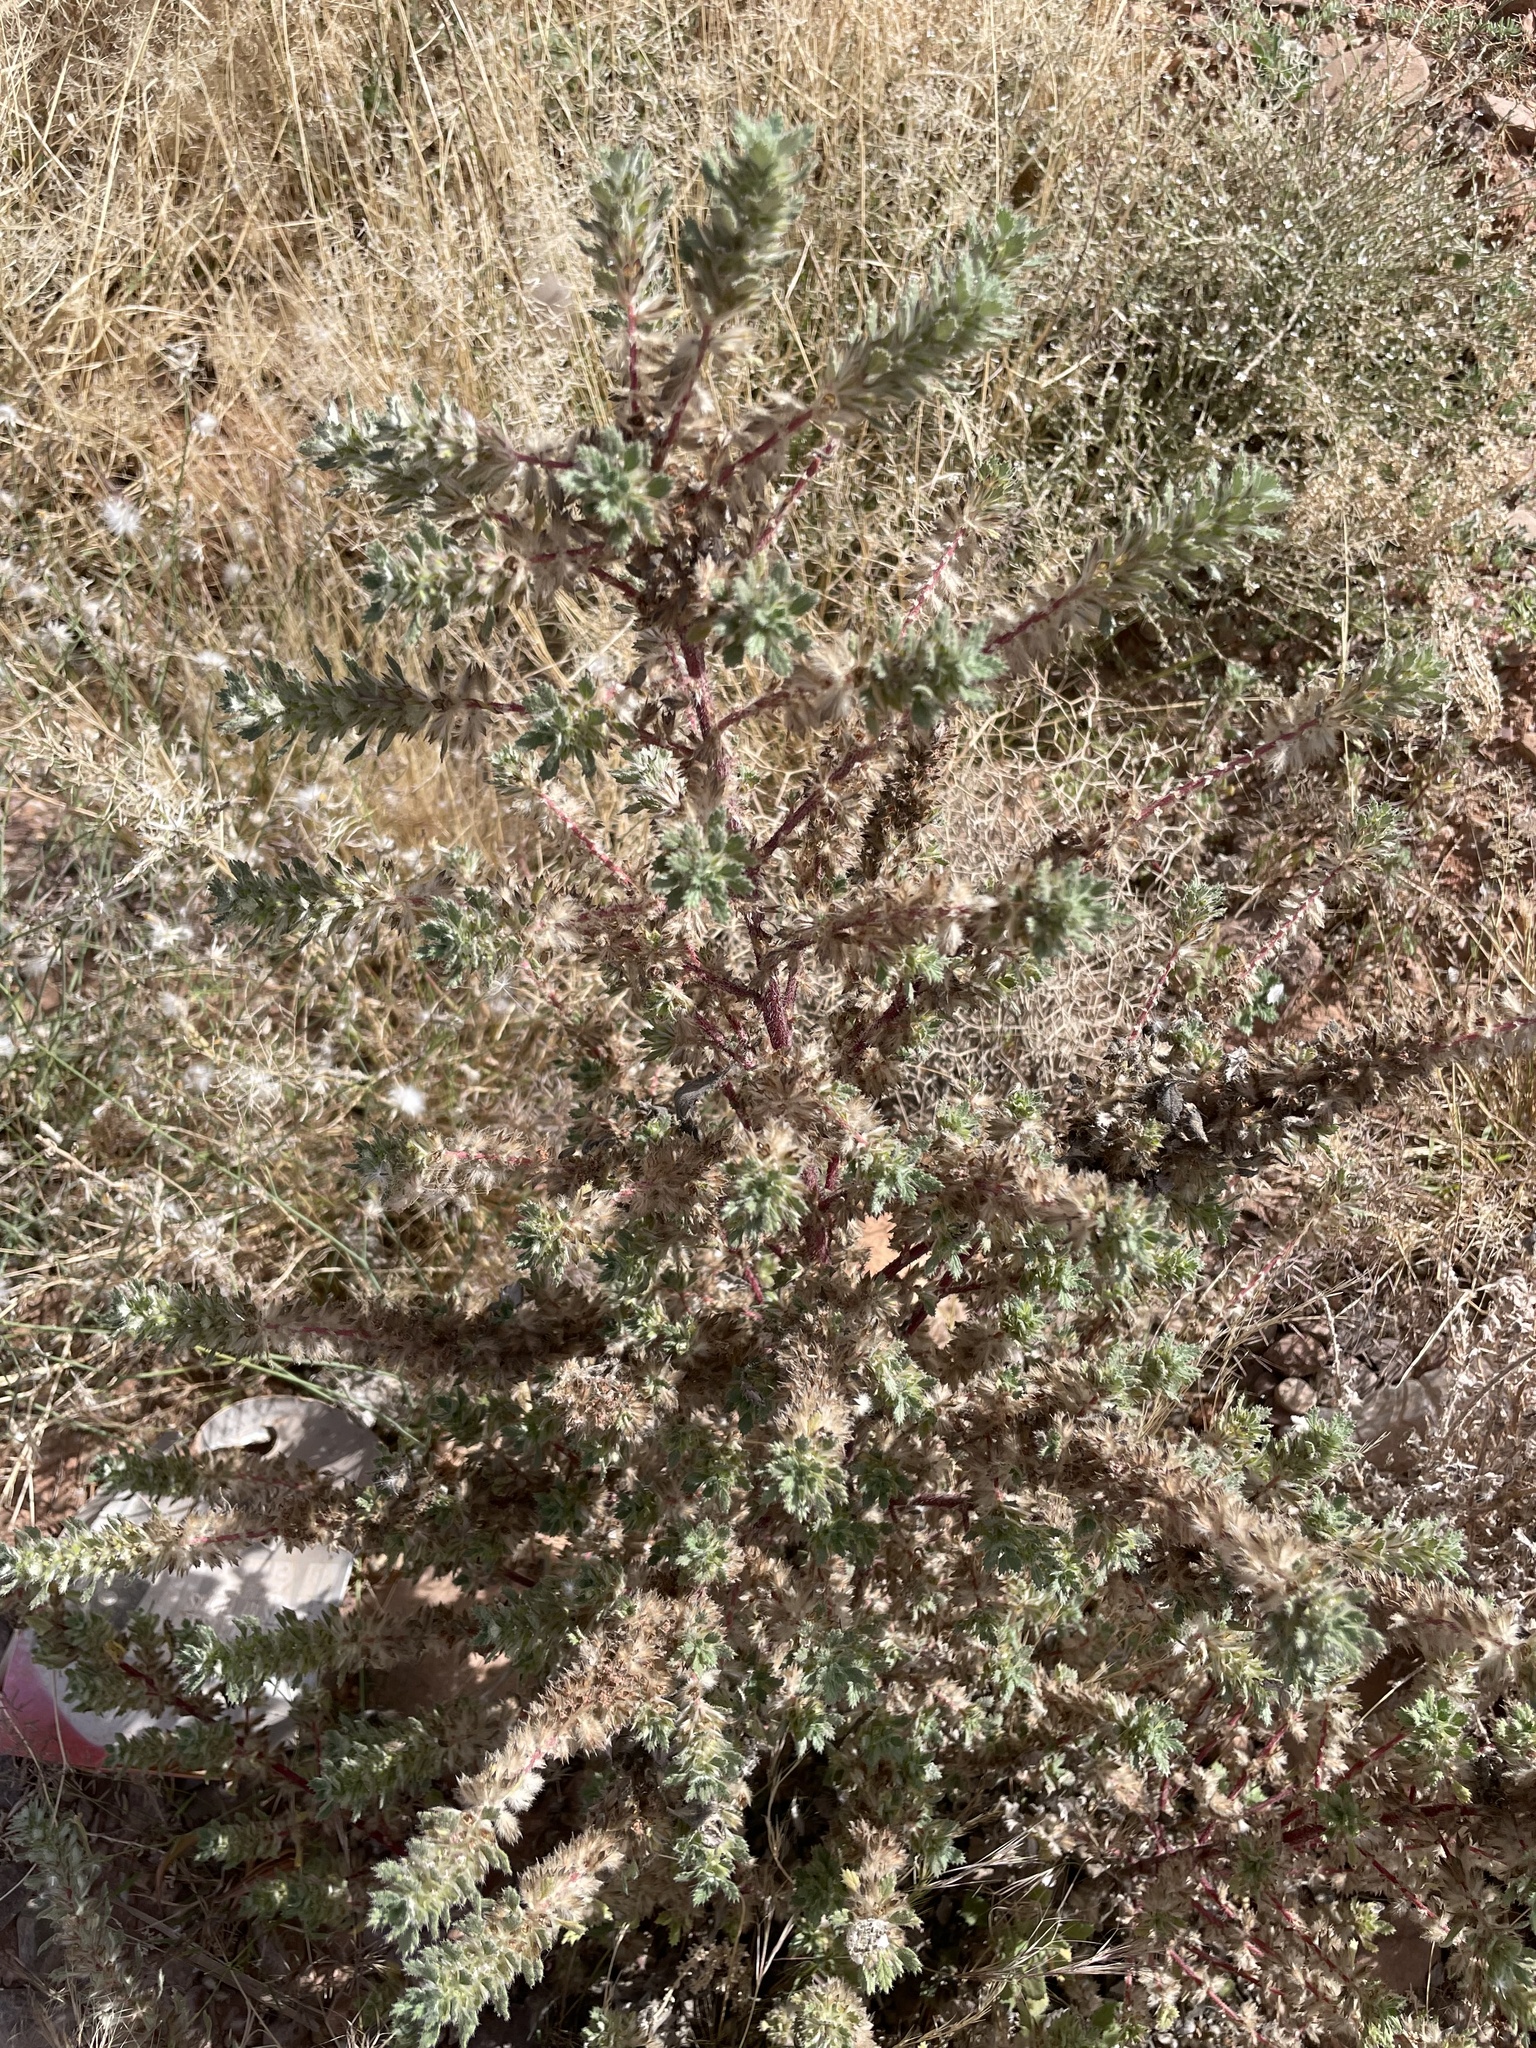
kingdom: Plantae
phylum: Tracheophyta
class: Magnoliopsida
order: Rosales
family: Urticaceae
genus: Forsskaolea
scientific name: Forsskaolea tenacissima
